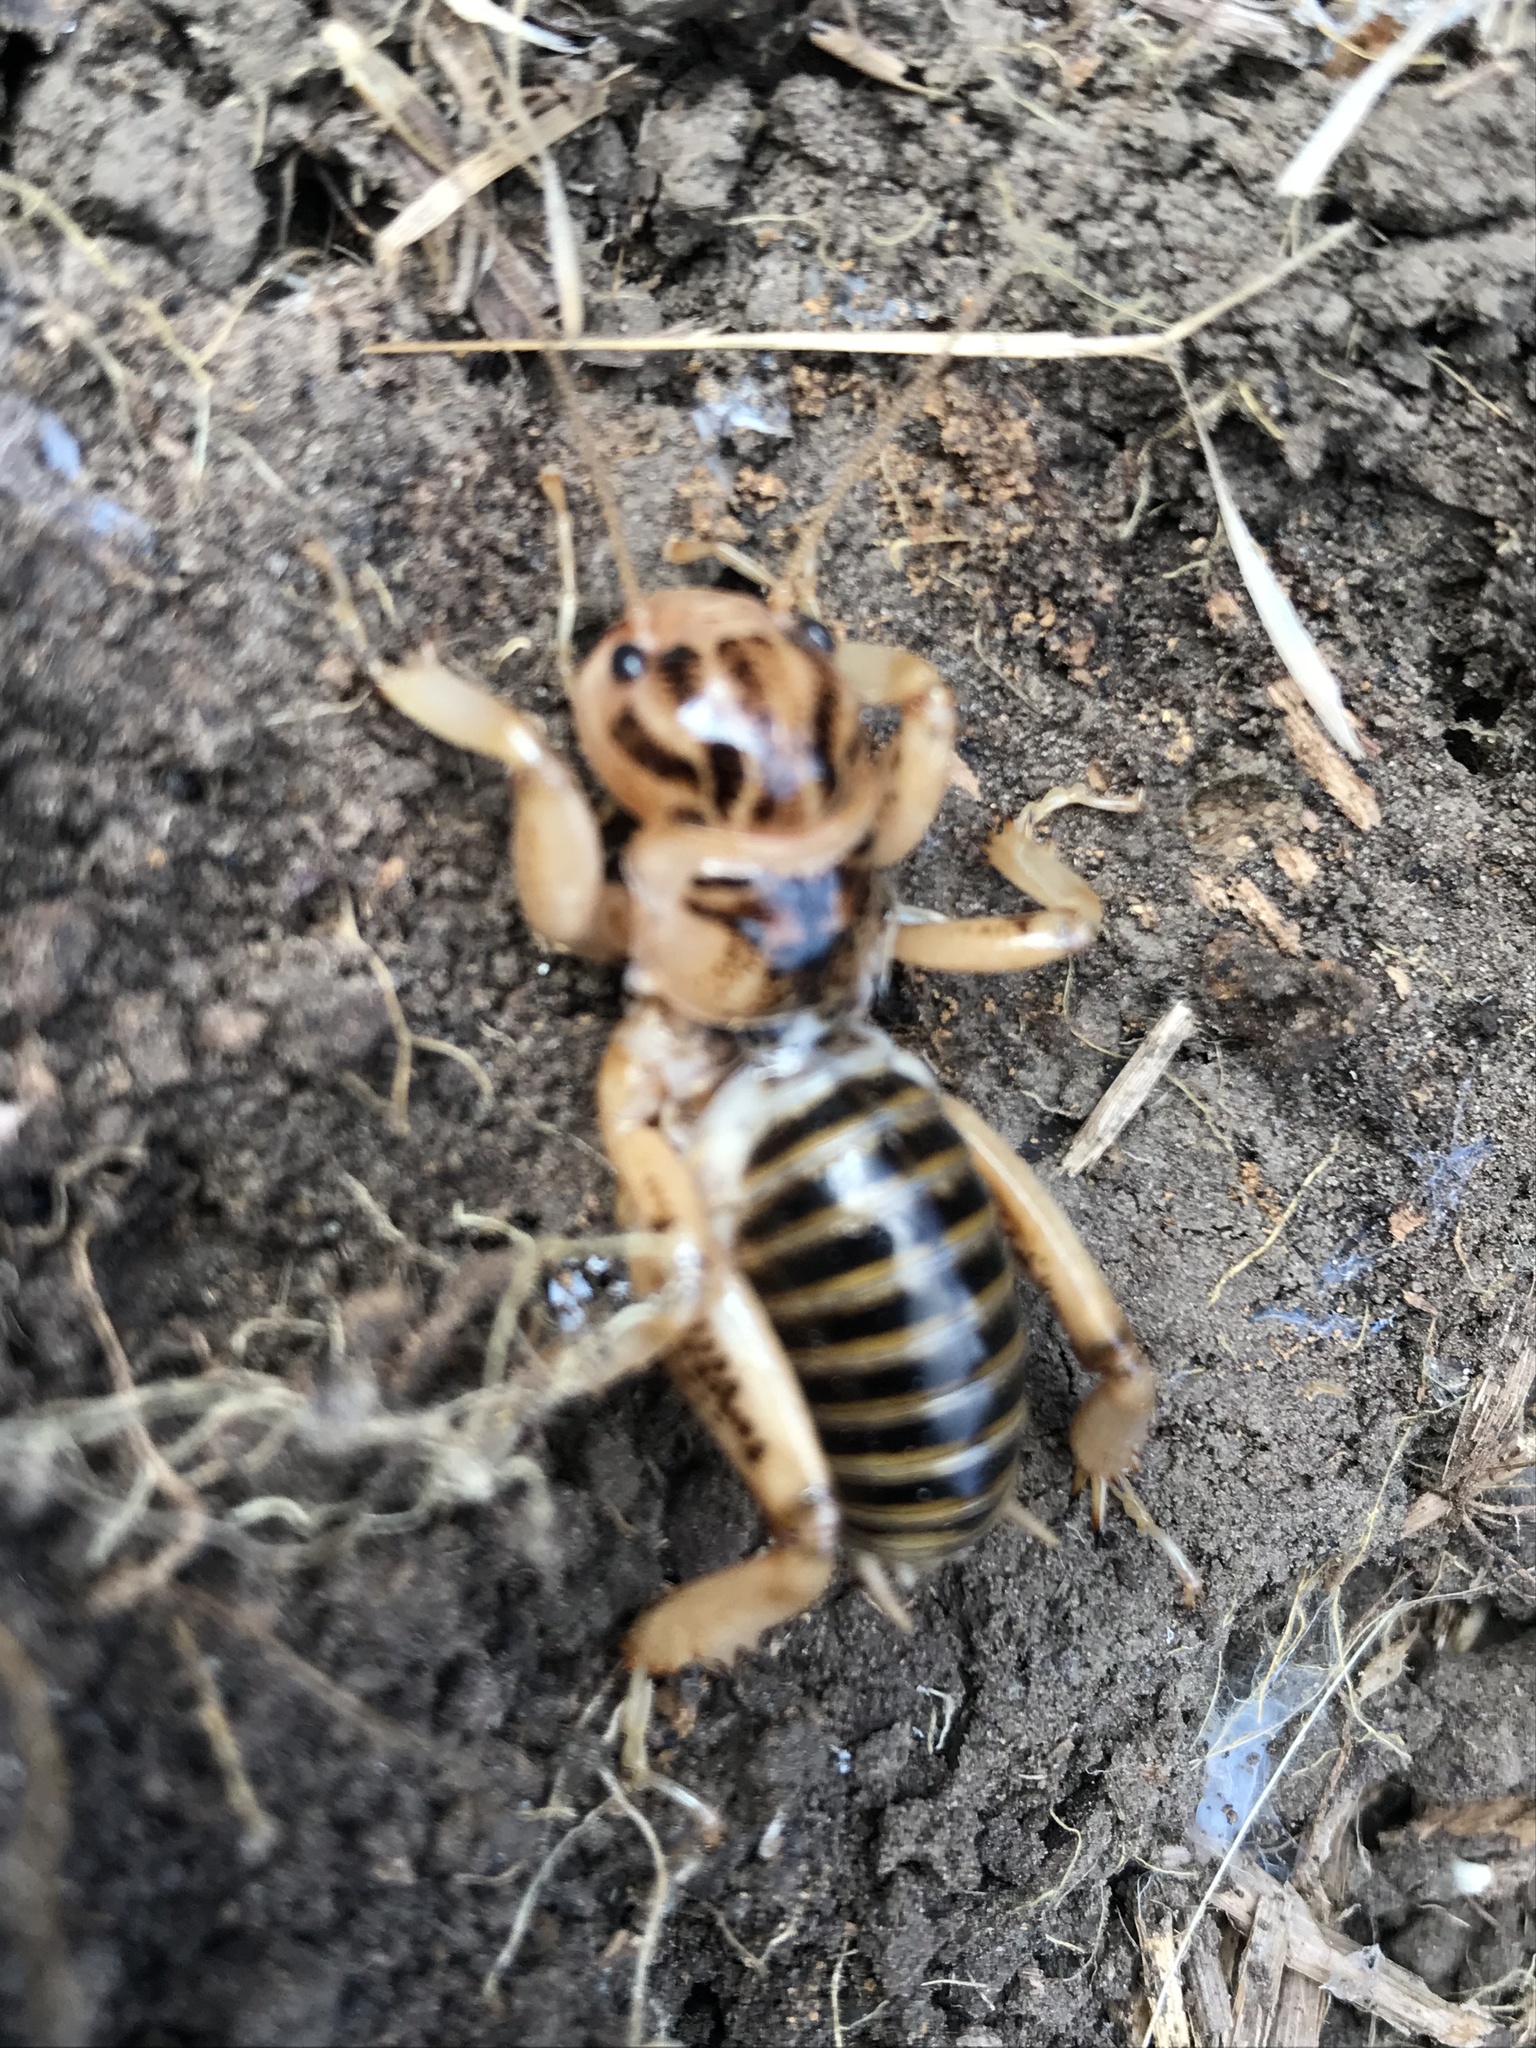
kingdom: Animalia
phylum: Arthropoda
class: Insecta
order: Orthoptera
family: Stenopelmatidae
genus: Ammopelmatus
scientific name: Ammopelmatus pictus
